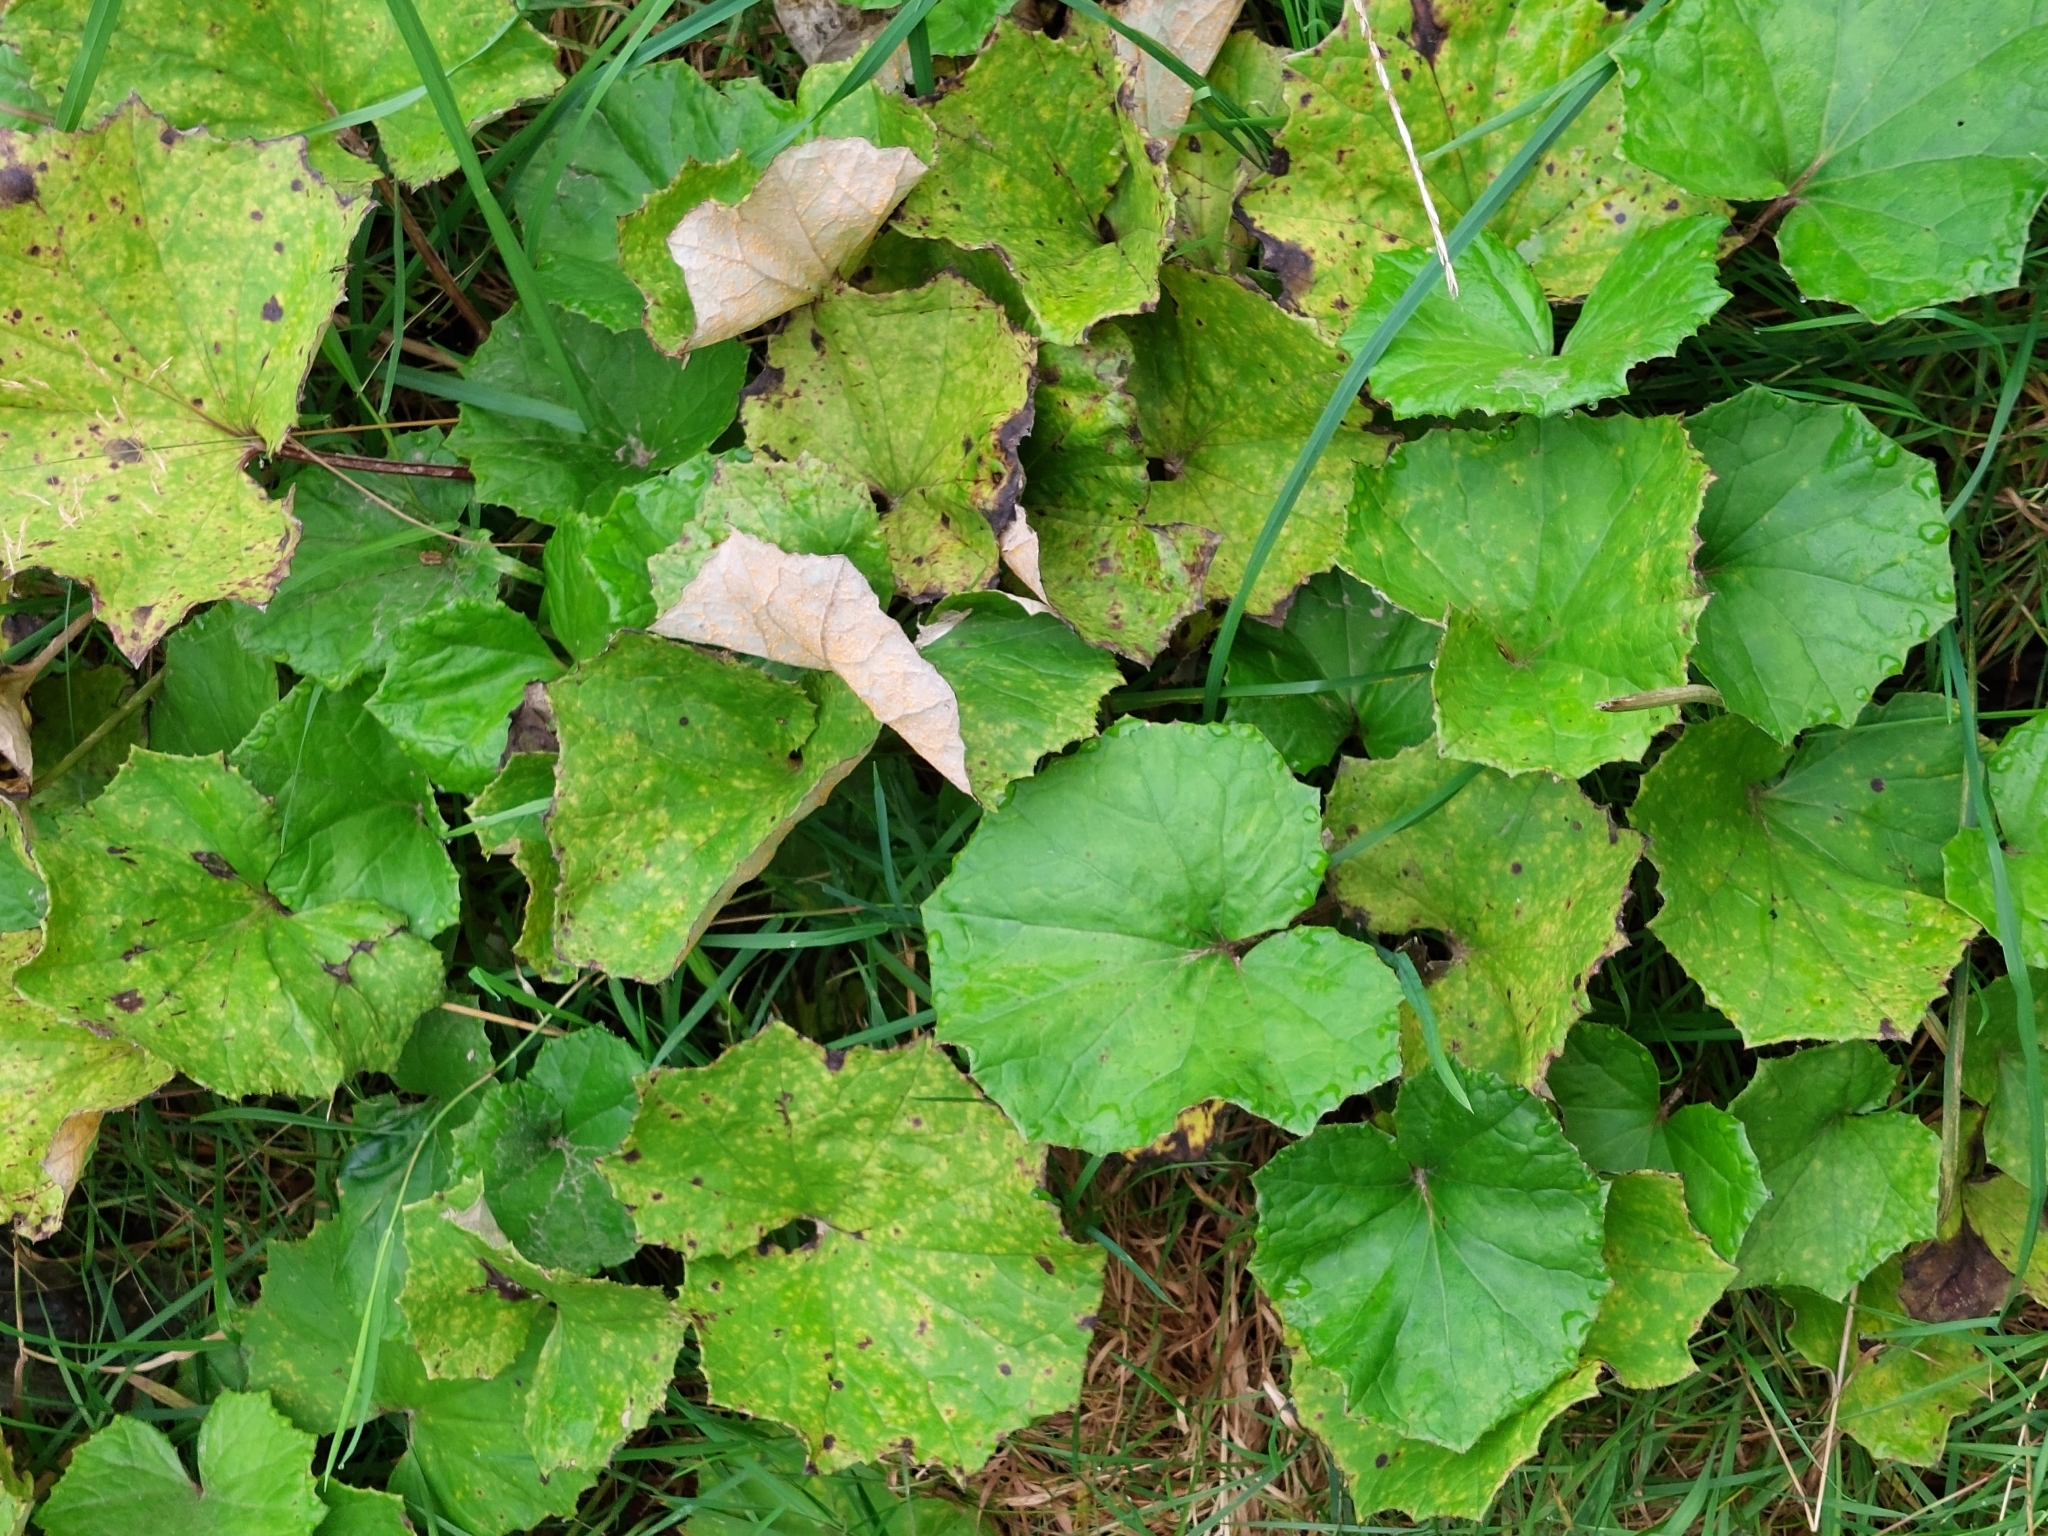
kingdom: Plantae
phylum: Tracheophyta
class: Magnoliopsida
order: Asterales
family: Asteraceae
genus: Tussilago
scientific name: Tussilago farfara
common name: Coltsfoot
